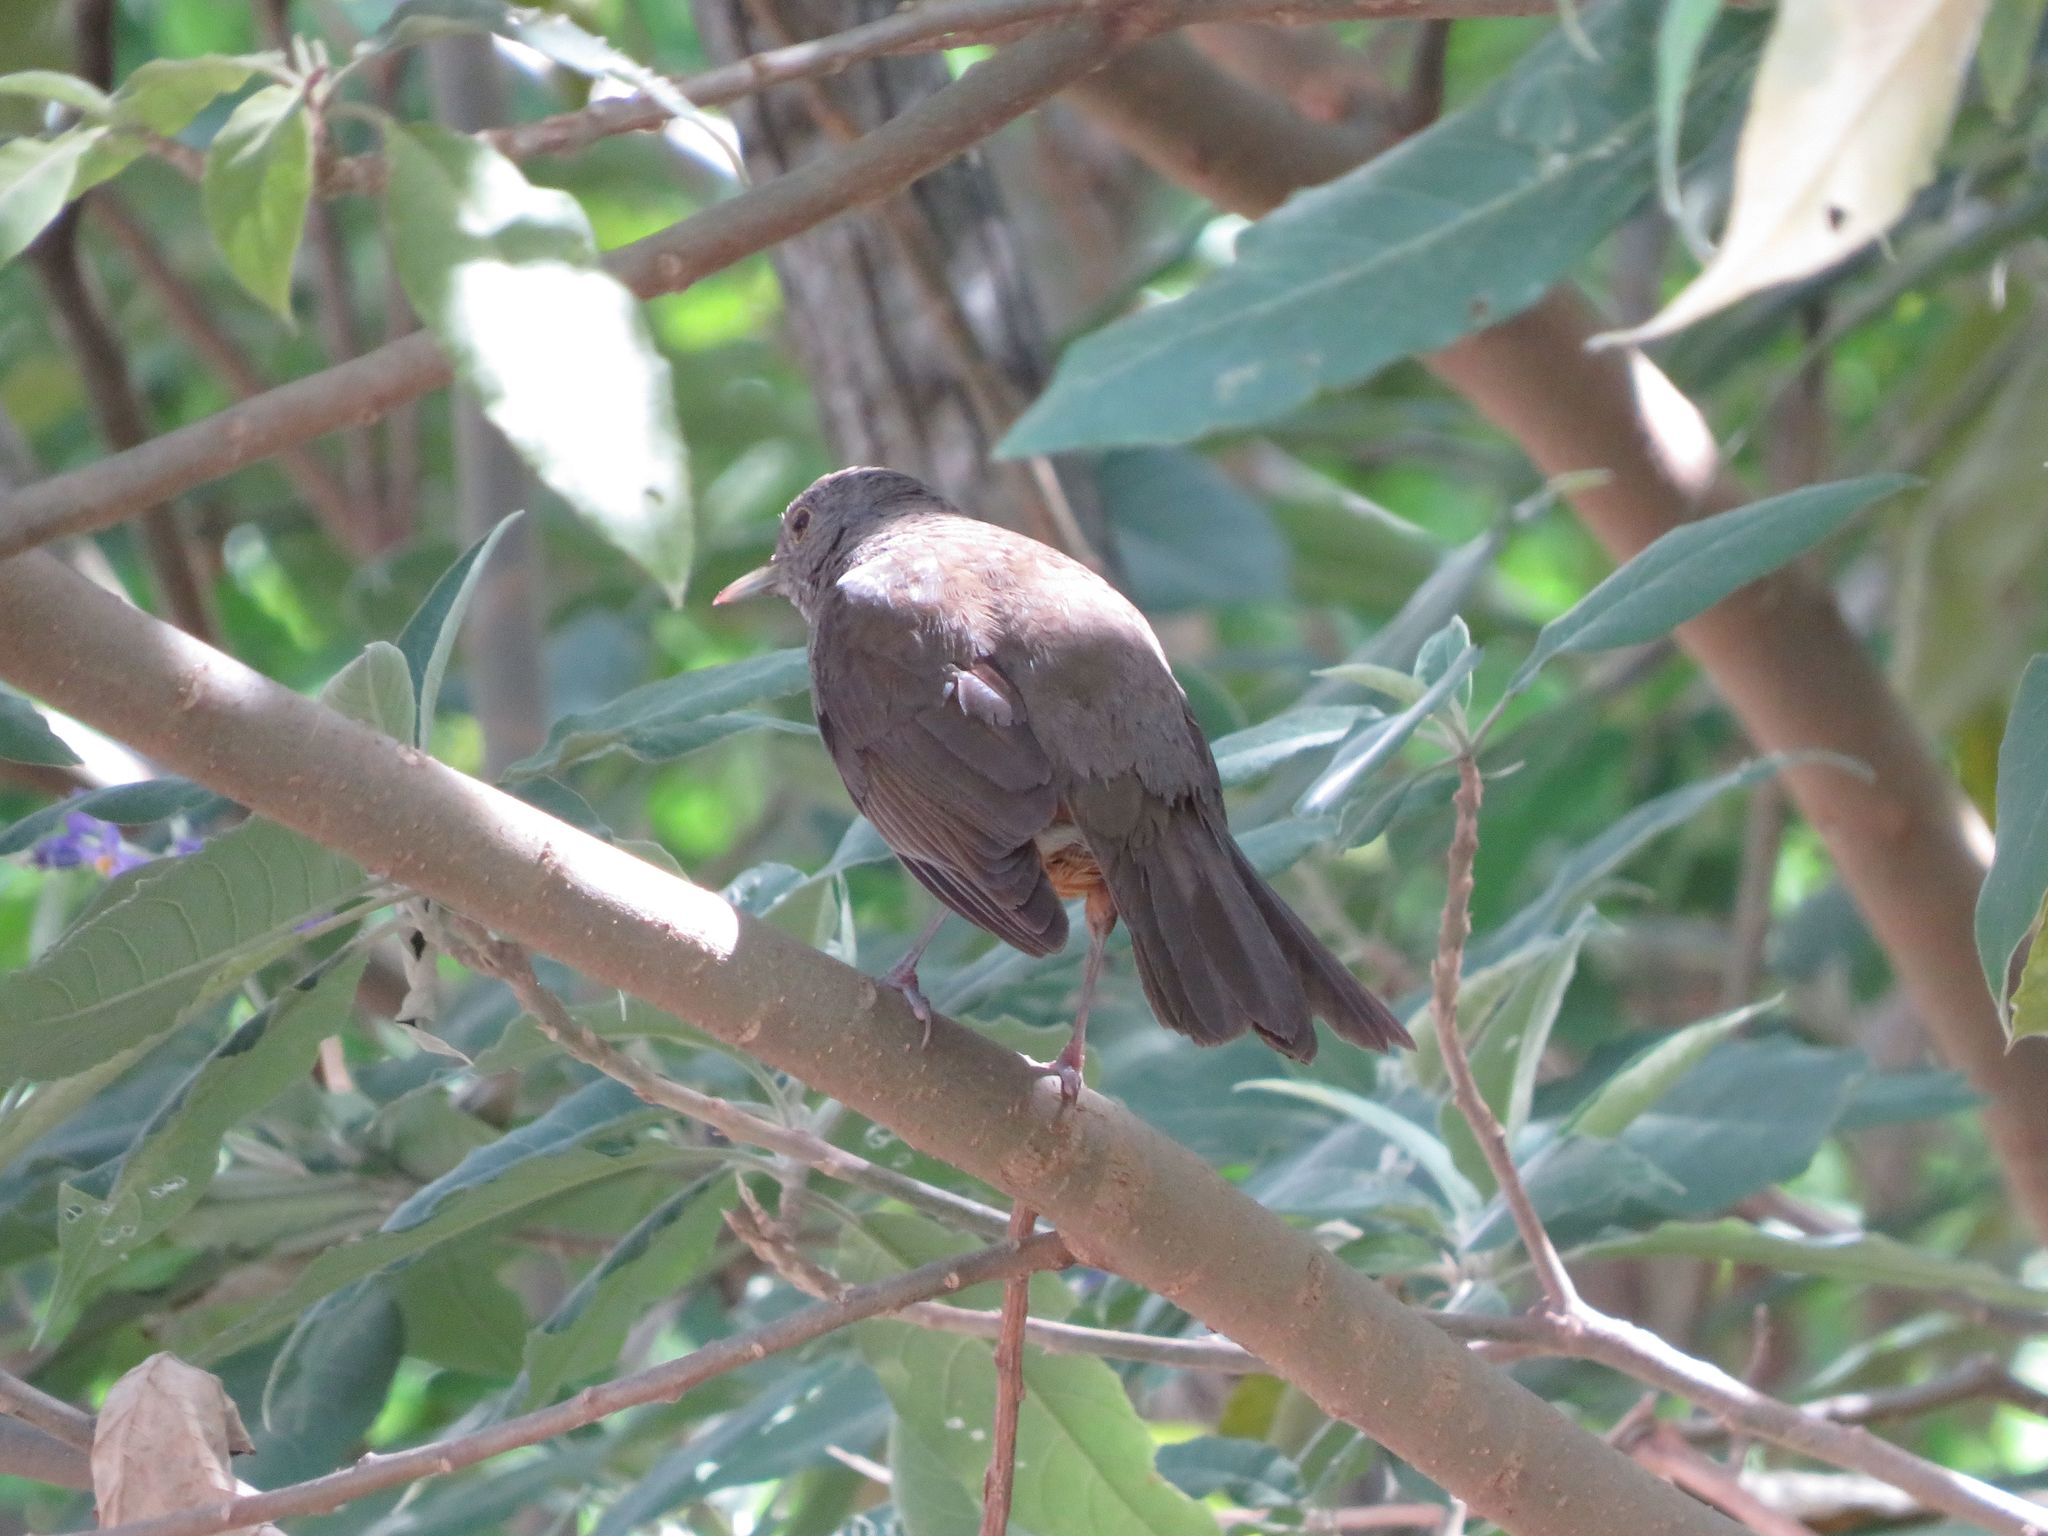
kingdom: Animalia
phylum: Chordata
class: Aves
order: Passeriformes
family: Turdidae
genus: Turdus
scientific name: Turdus rufiventris
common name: Rufous-bellied thrush
